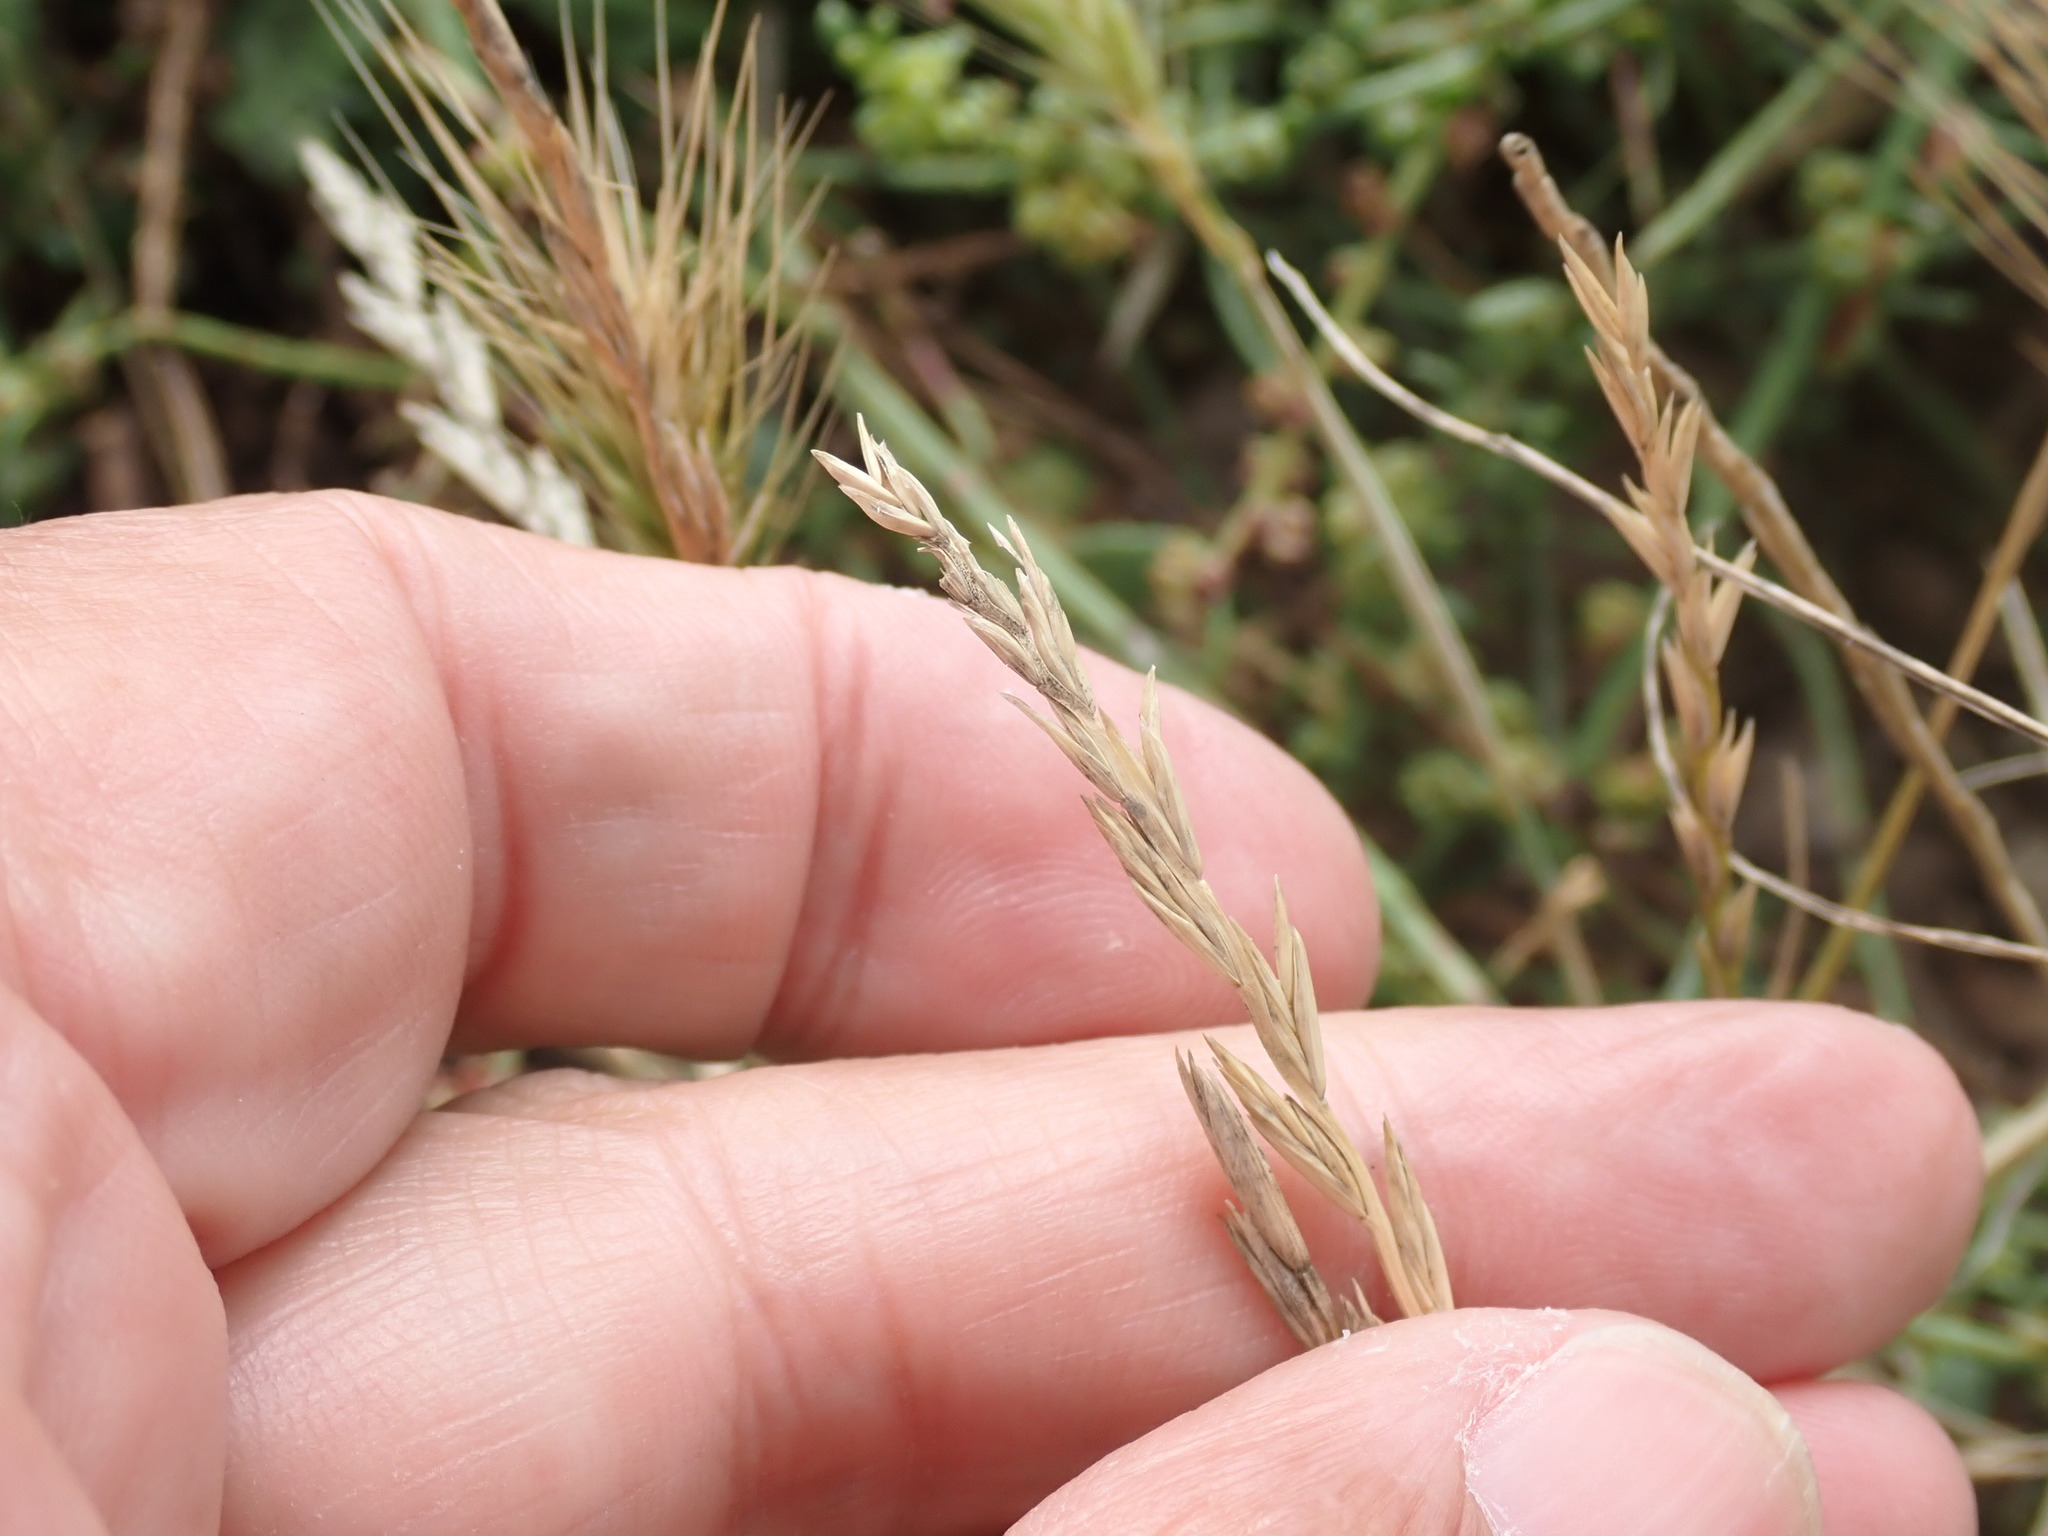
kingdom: Plantae
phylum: Tracheophyta
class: Liliopsida
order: Poales
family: Poaceae
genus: Lolium
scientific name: Lolium perenne
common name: Perennial ryegrass
